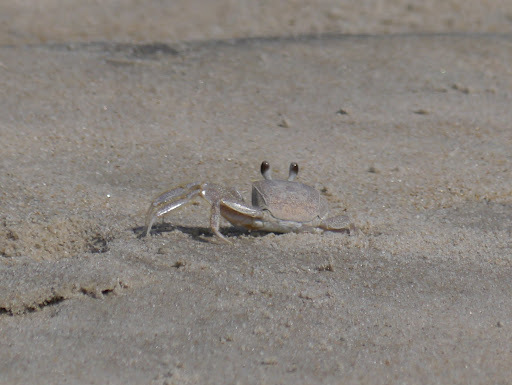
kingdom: Animalia
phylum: Arthropoda
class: Malacostraca
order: Decapoda
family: Ocypodidae
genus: Ocypode
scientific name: Ocypode quadrata
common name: Ghost crab
